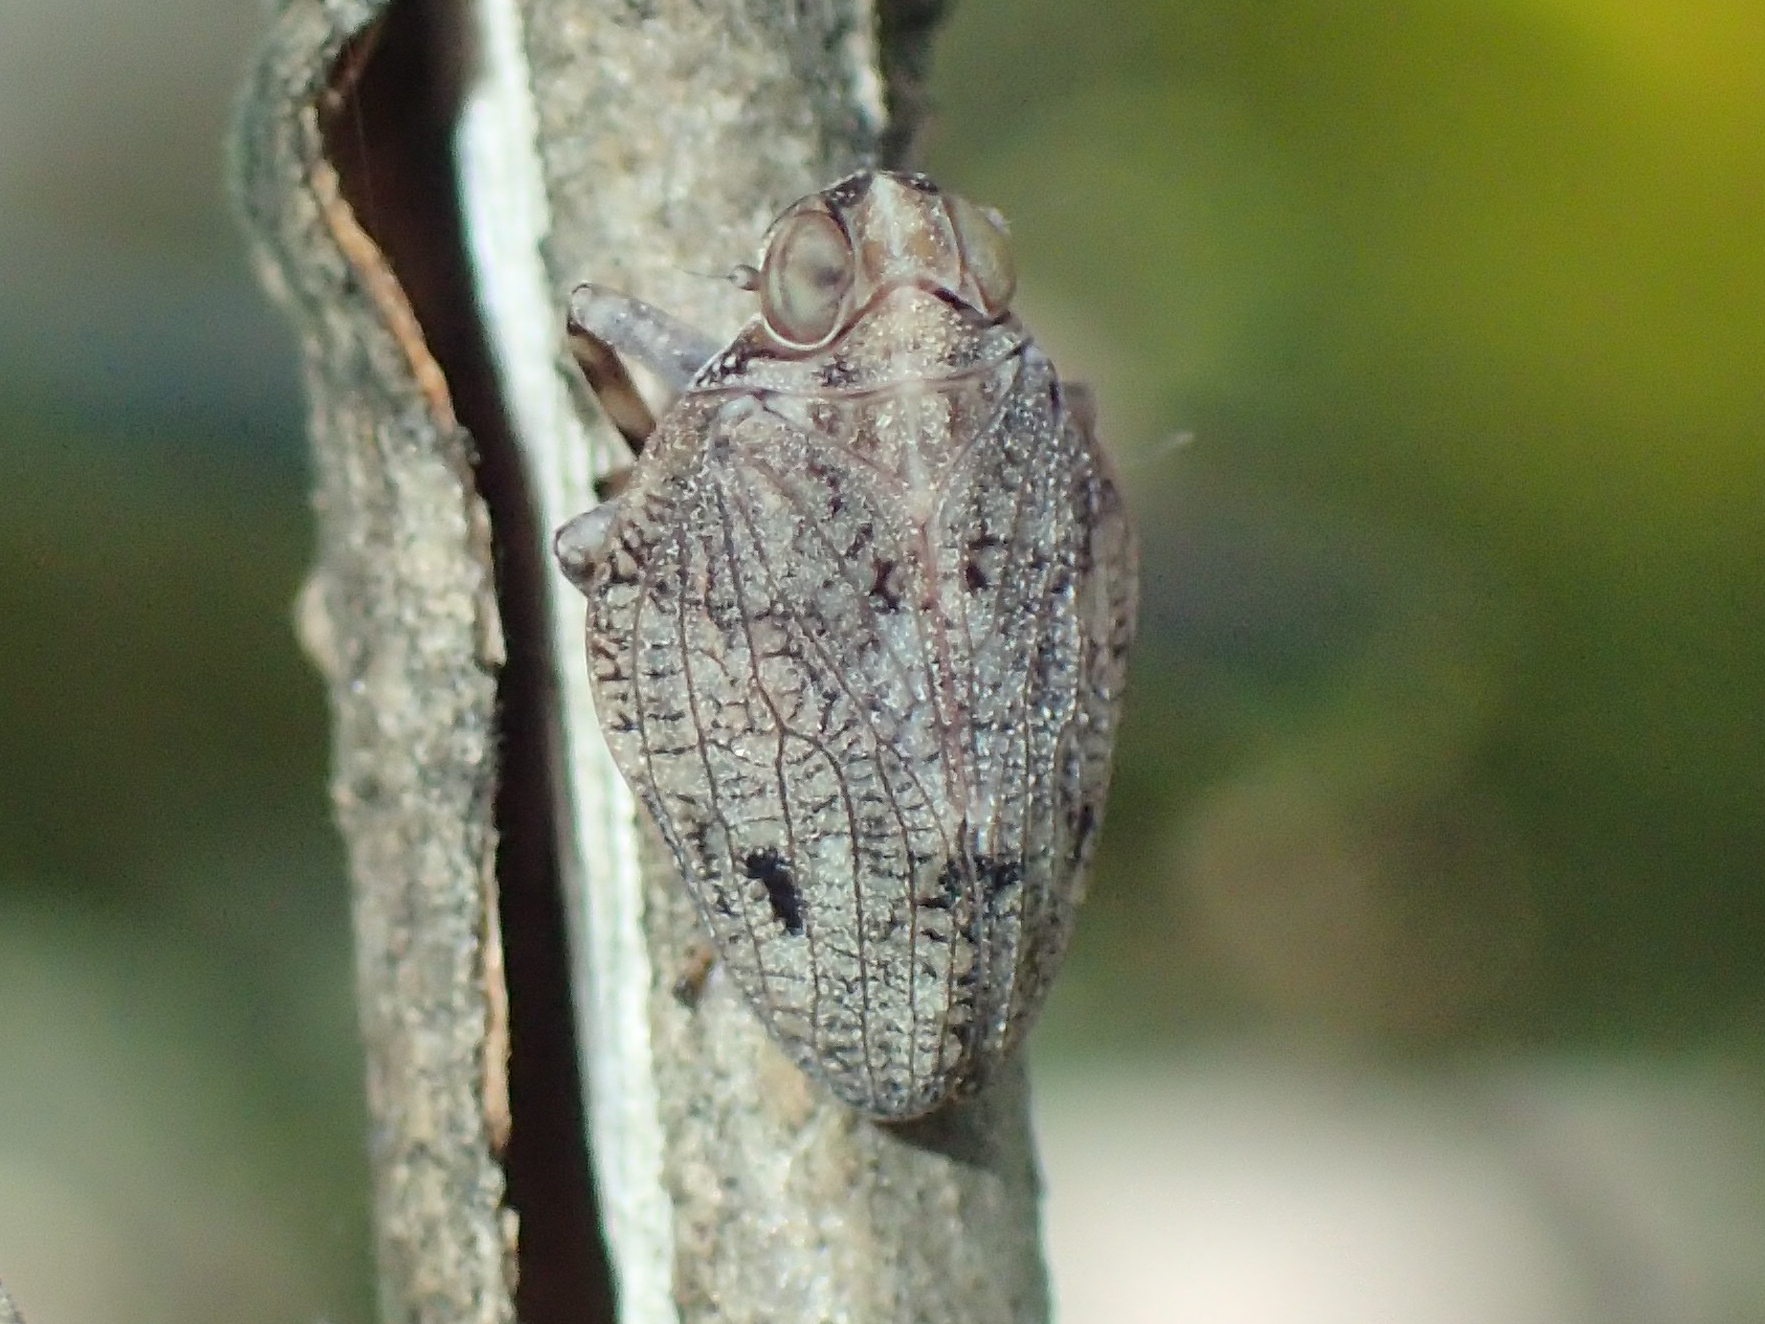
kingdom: Animalia
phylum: Arthropoda
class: Insecta
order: Hemiptera
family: Issidae
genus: Issus
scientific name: Issus coleoptratus
